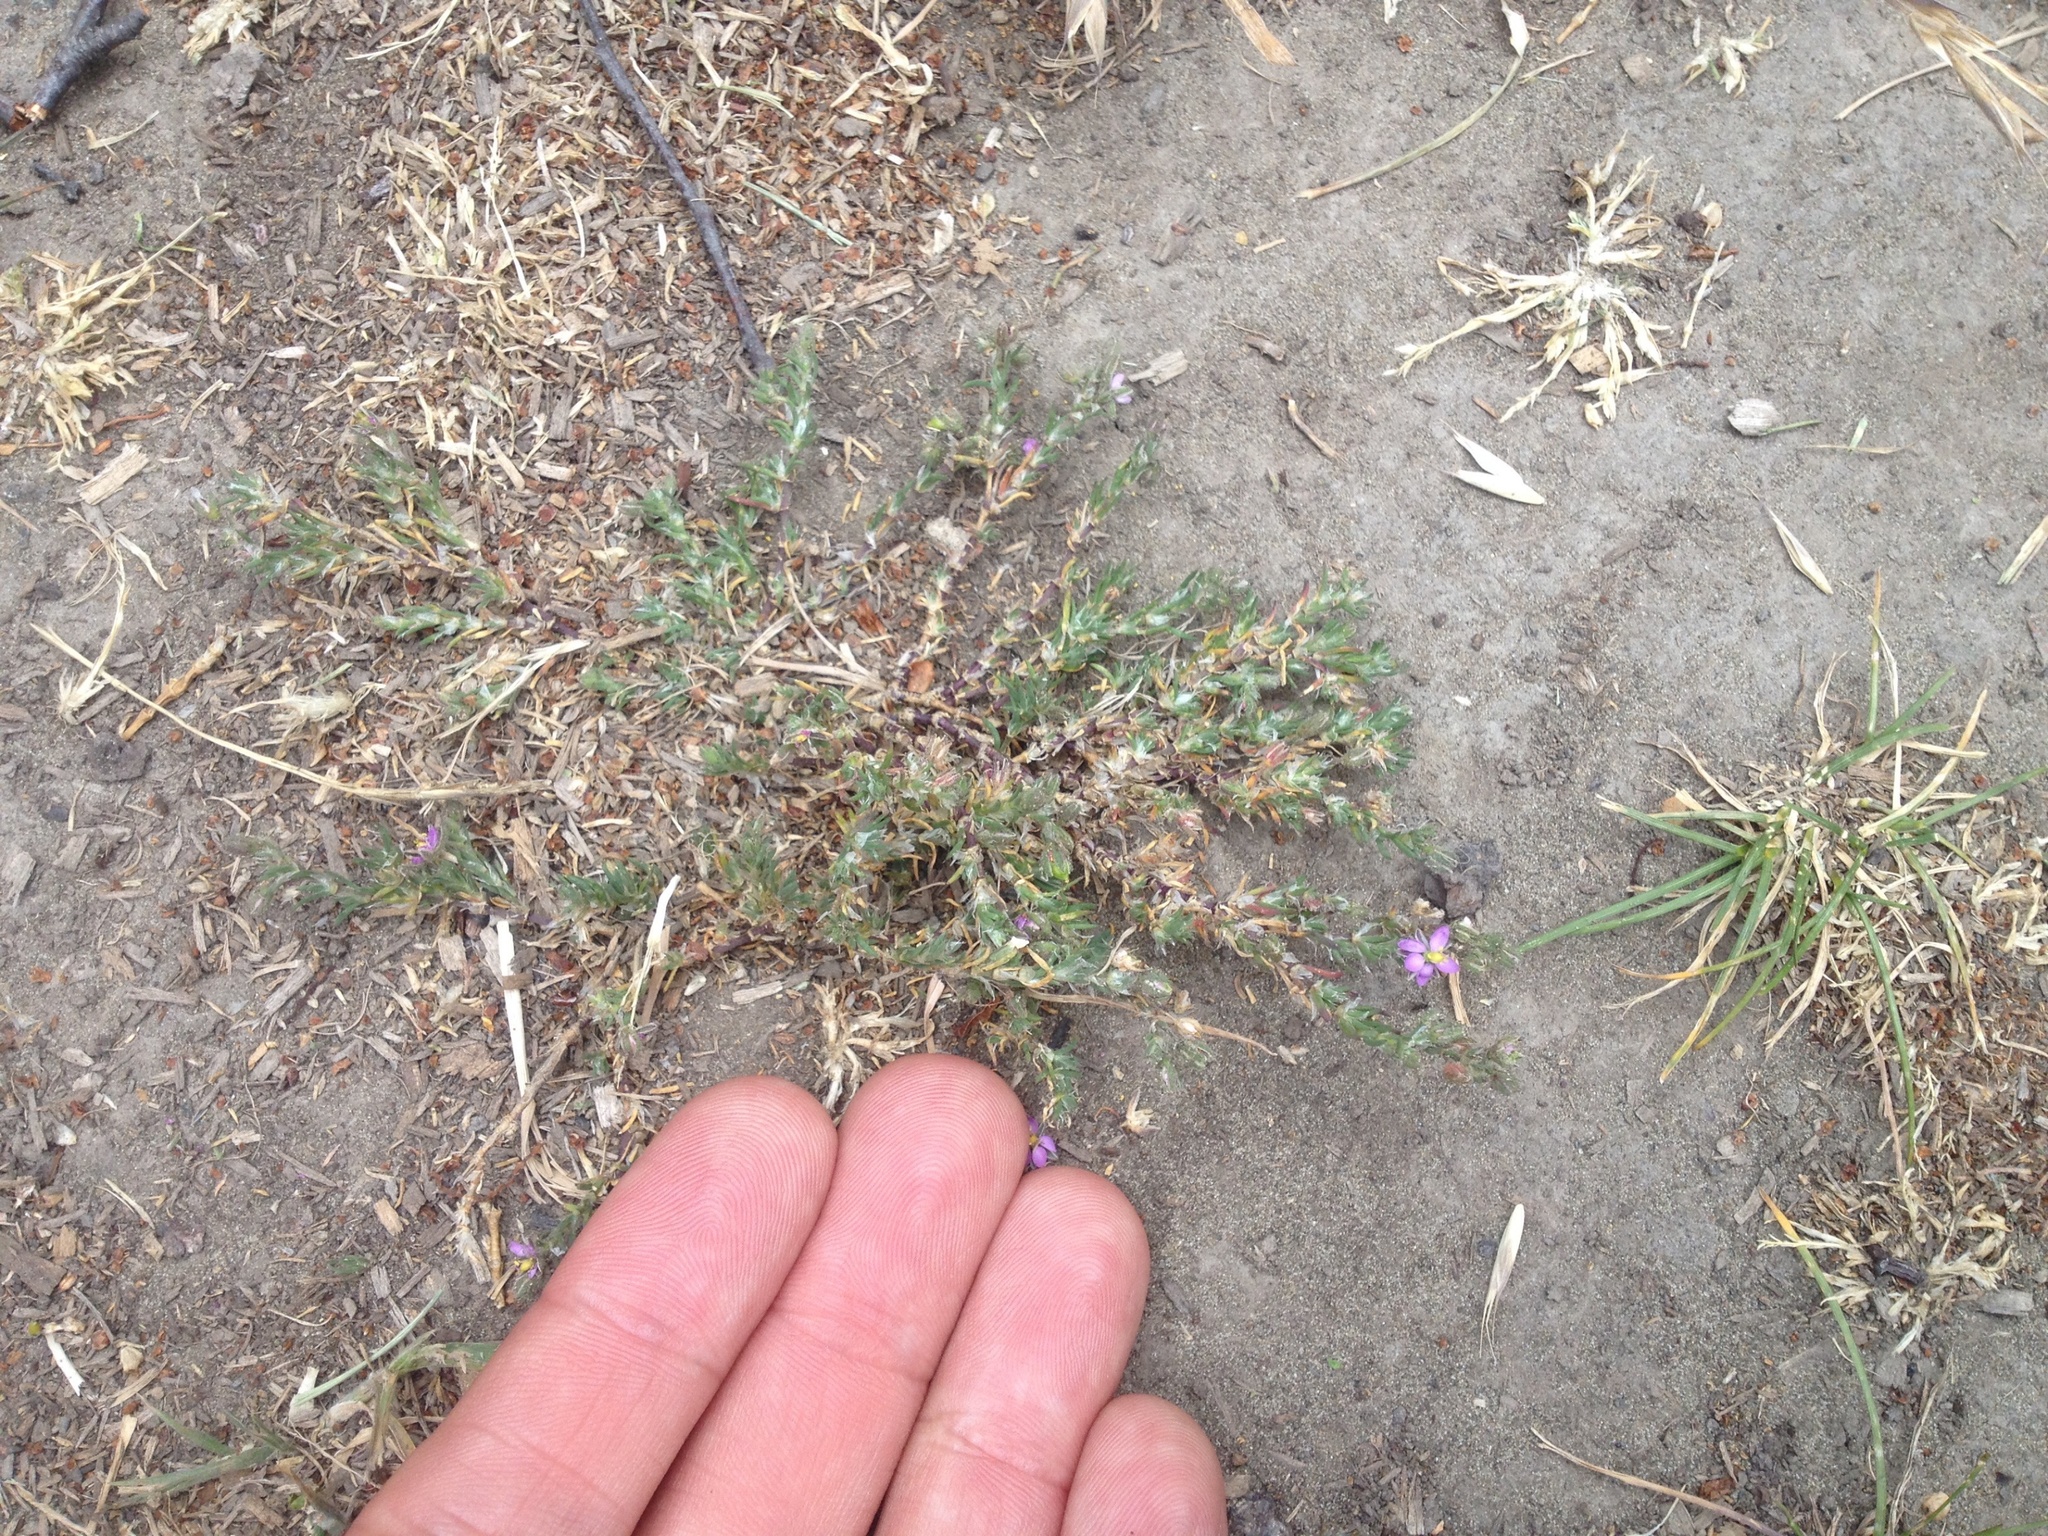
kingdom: Plantae
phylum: Tracheophyta
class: Magnoliopsida
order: Caryophyllales
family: Caryophyllaceae
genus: Spergularia
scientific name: Spergularia rubra
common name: Red sand-spurrey
